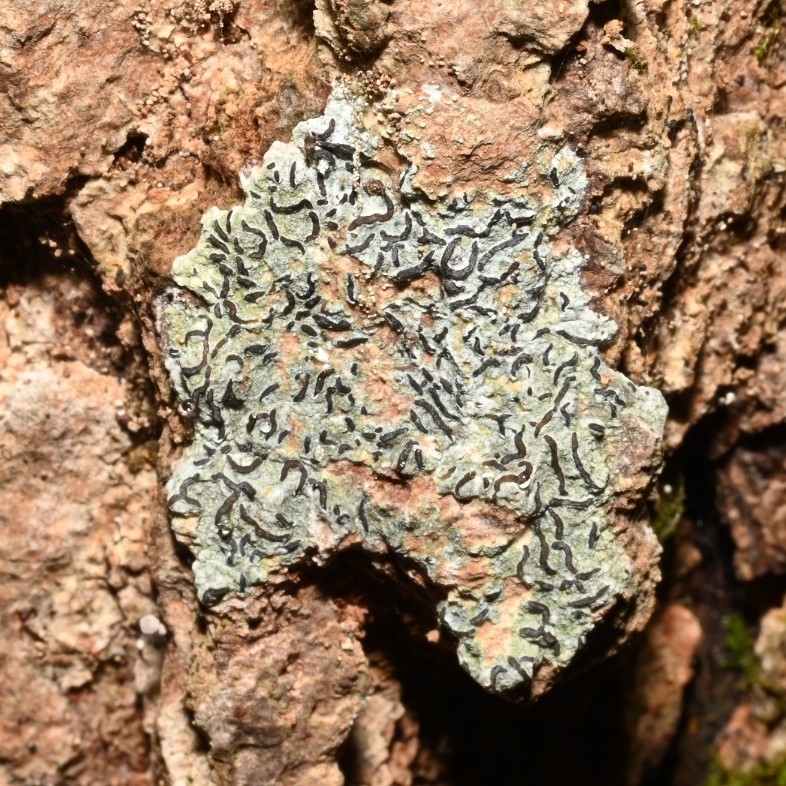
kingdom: Fungi
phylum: Ascomycota
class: Lecanoromycetes
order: Ostropales
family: Graphidaceae
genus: Graphis
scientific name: Graphis scripta
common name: Script lichen
